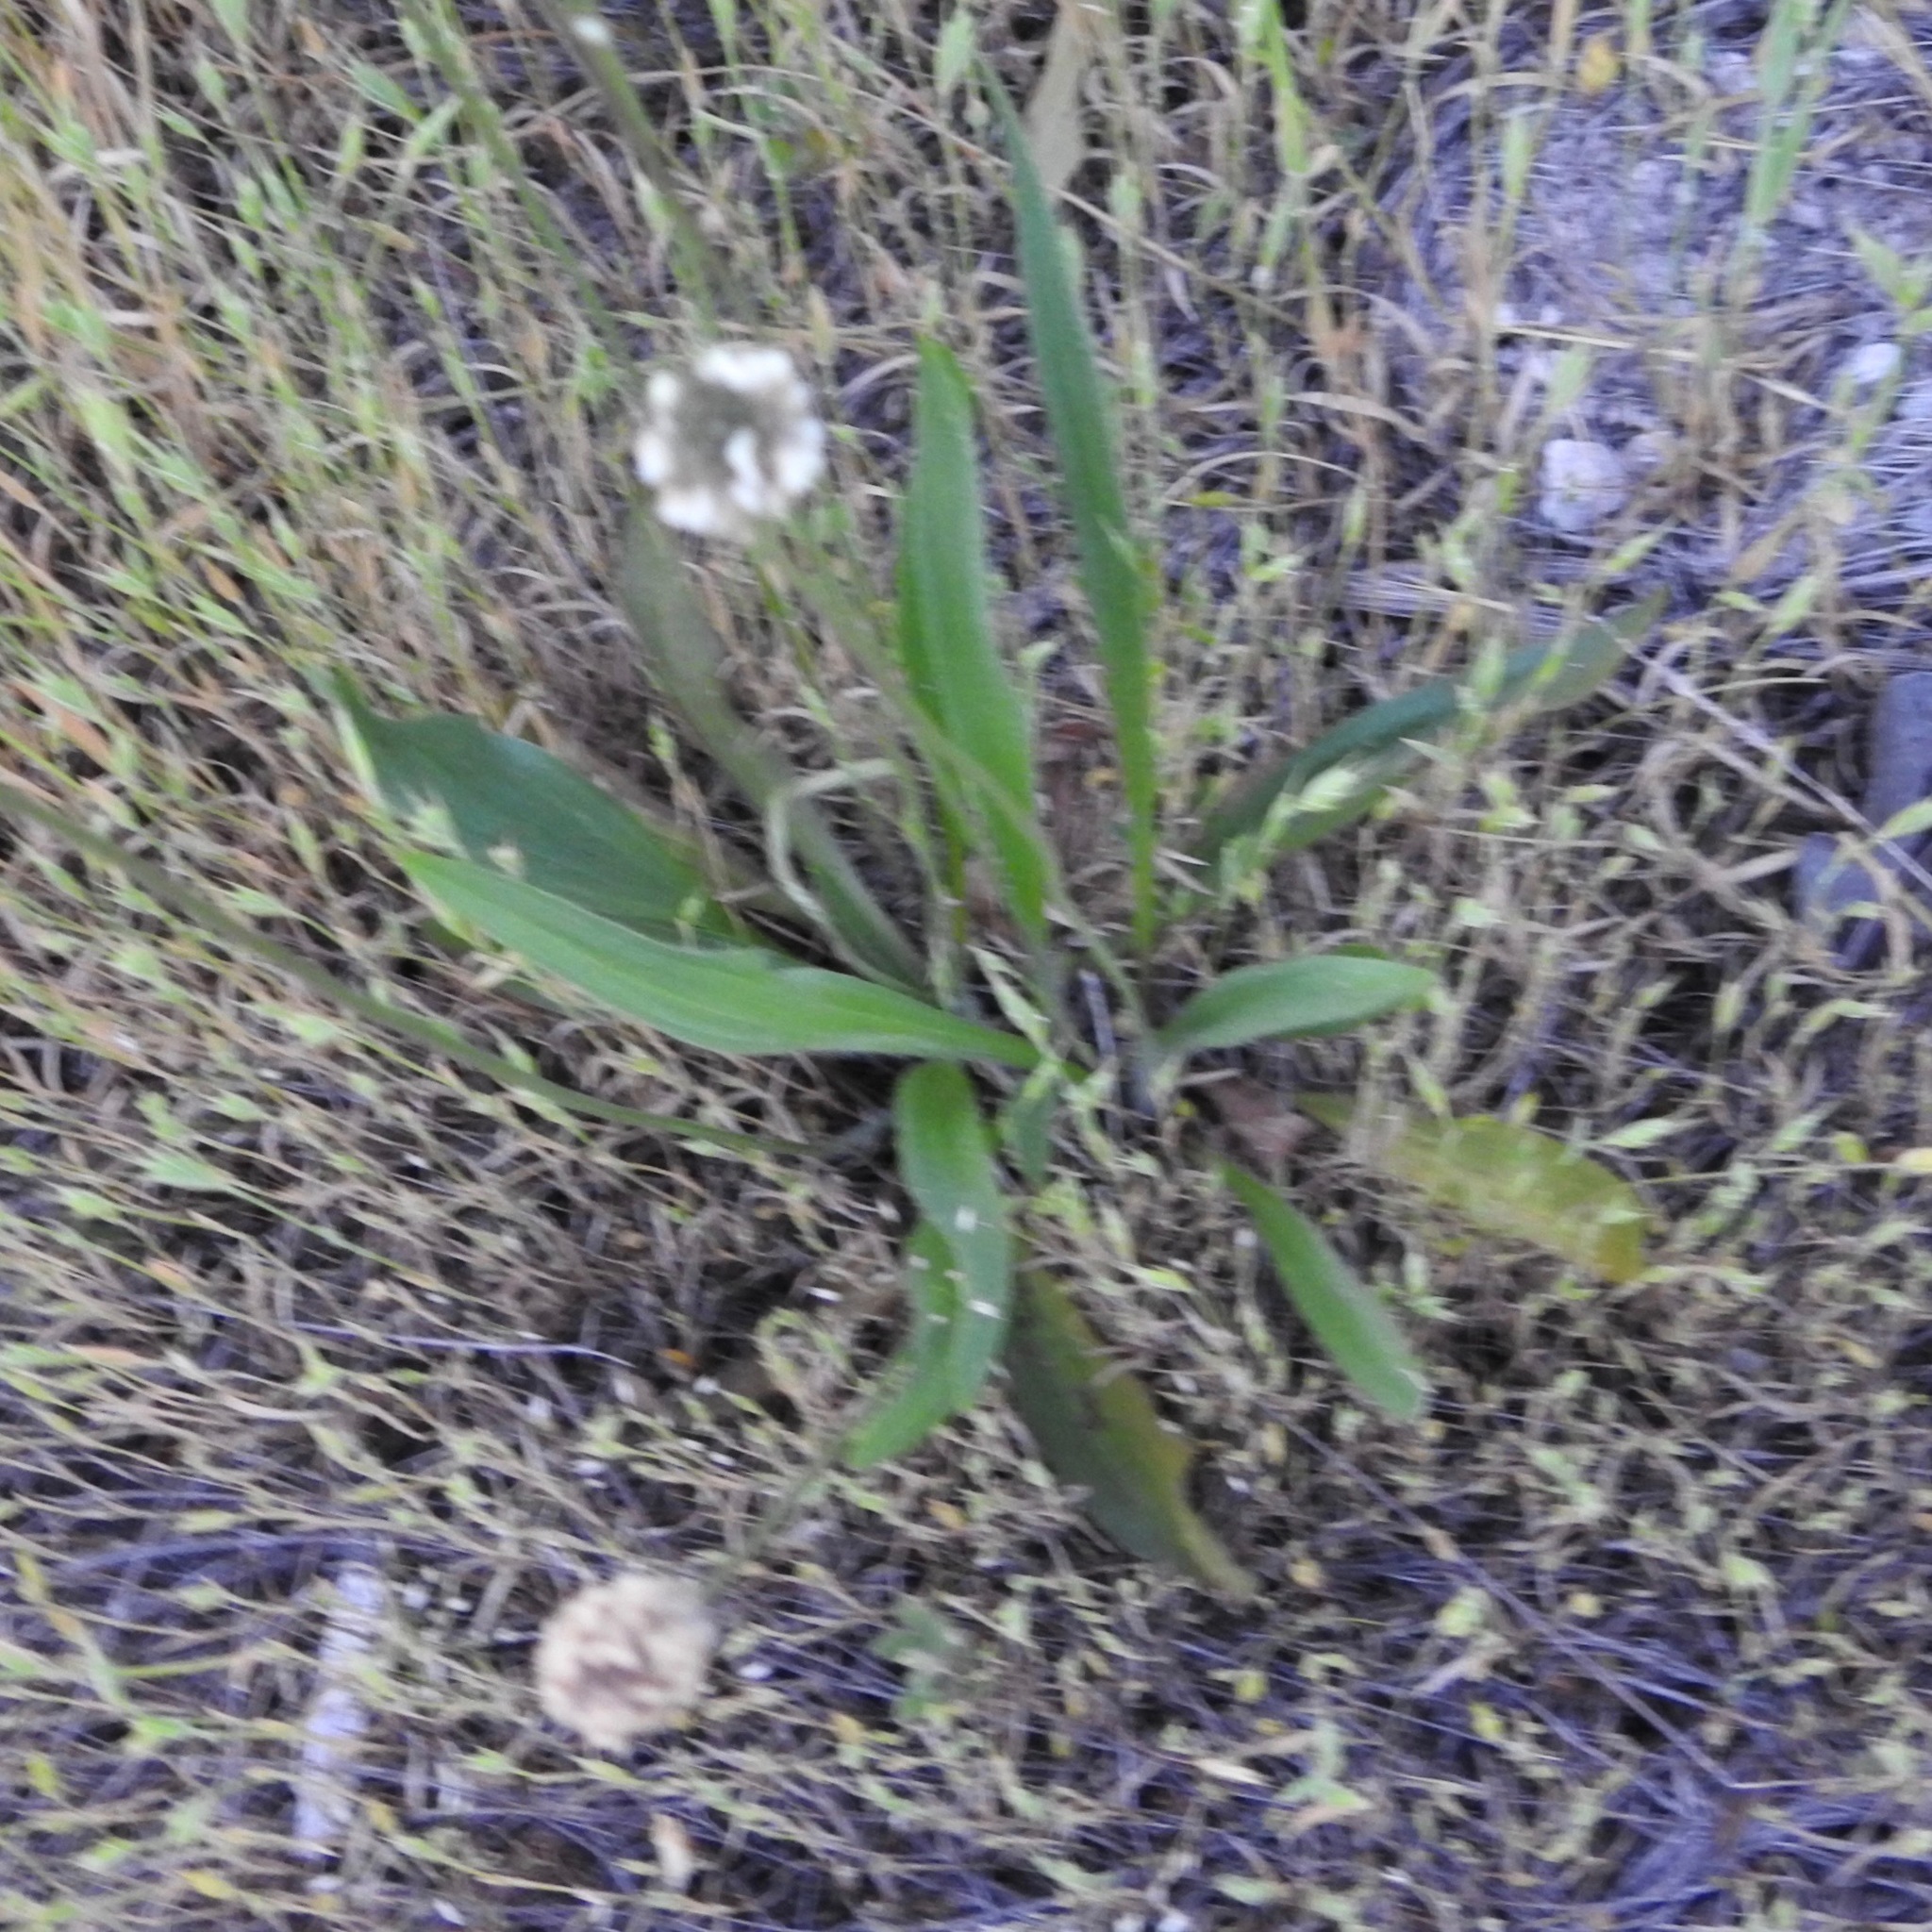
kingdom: Plantae
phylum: Tracheophyta
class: Magnoliopsida
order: Lamiales
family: Plantaginaceae
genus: Plantago
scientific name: Plantago lanceolata
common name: Ribwort plantain
